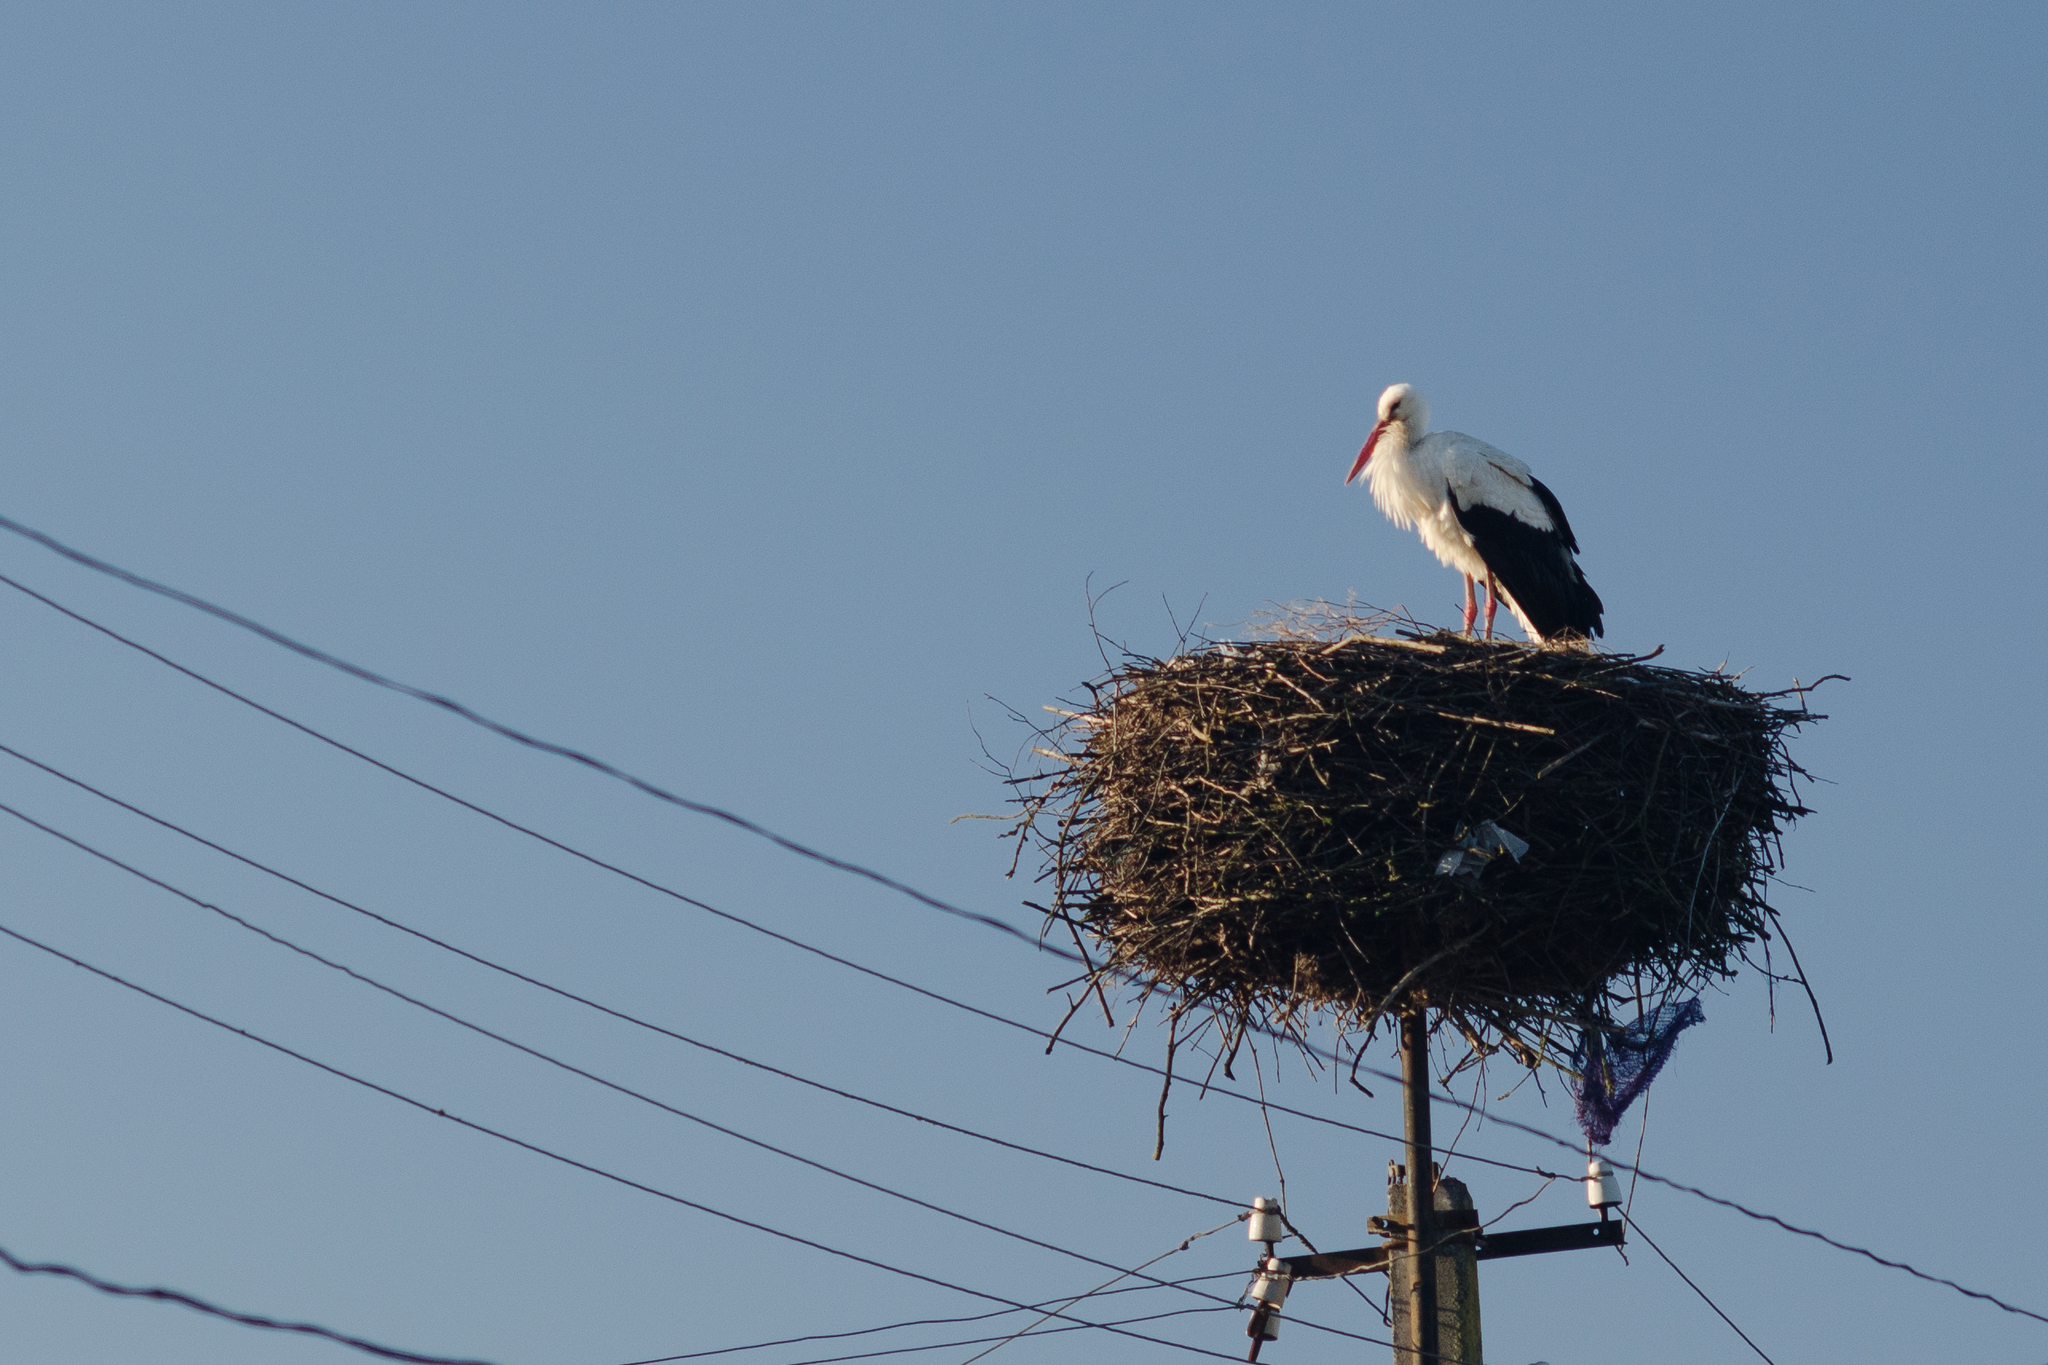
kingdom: Animalia
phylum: Chordata
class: Aves
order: Ciconiiformes
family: Ciconiidae
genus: Ciconia
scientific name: Ciconia ciconia
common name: White stork
